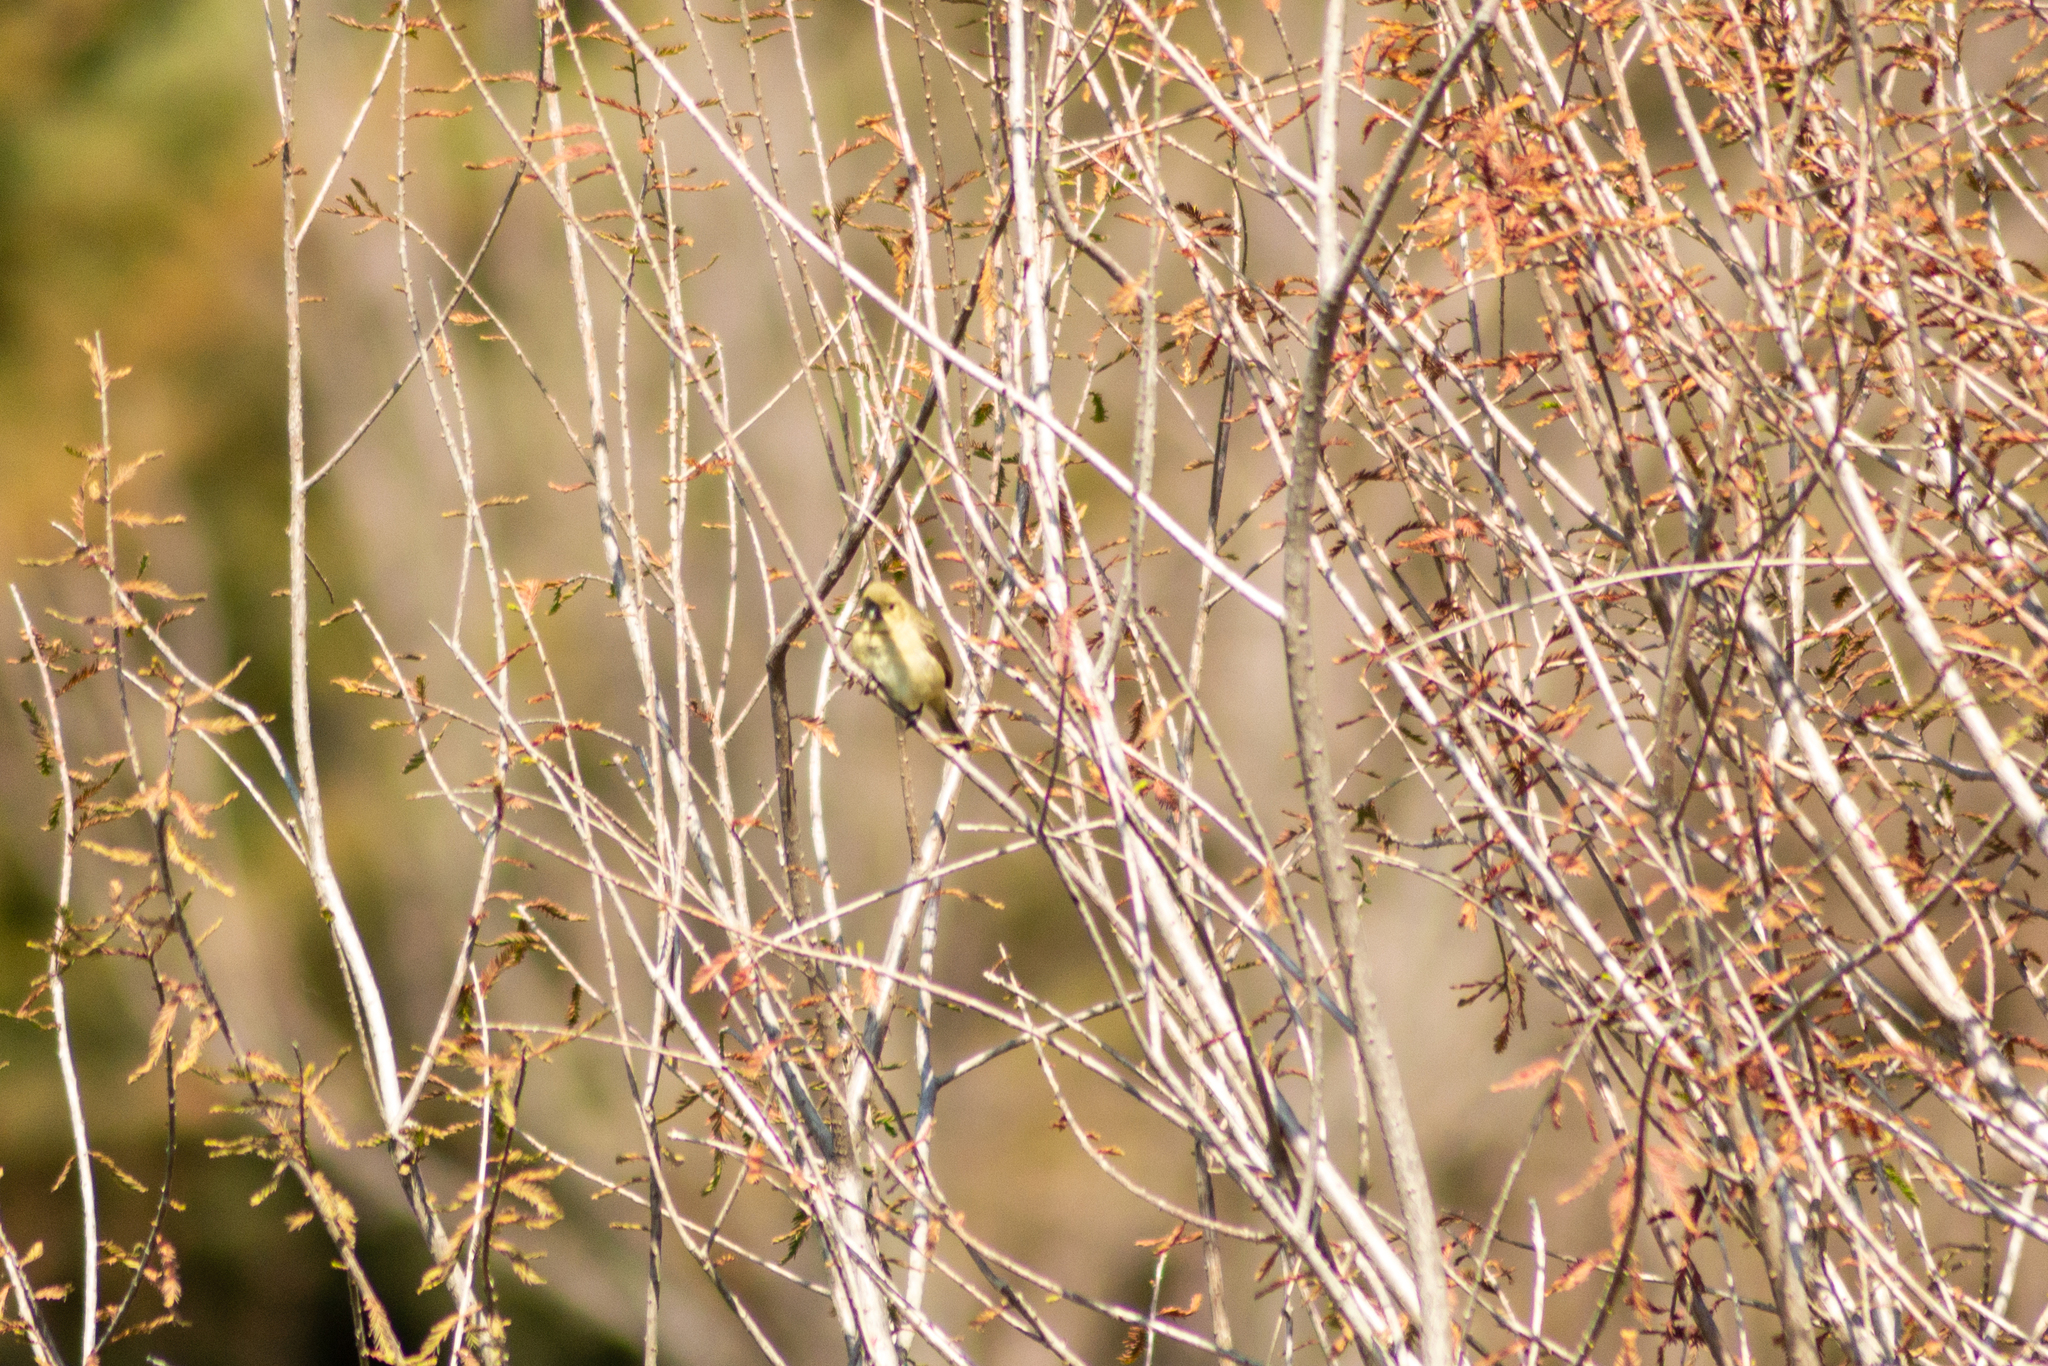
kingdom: Animalia
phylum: Chordata
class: Aves
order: Passeriformes
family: Tyrannidae
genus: Empidonax
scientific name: Empidonax fulvifrons
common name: Buff-breasted flycatcher
